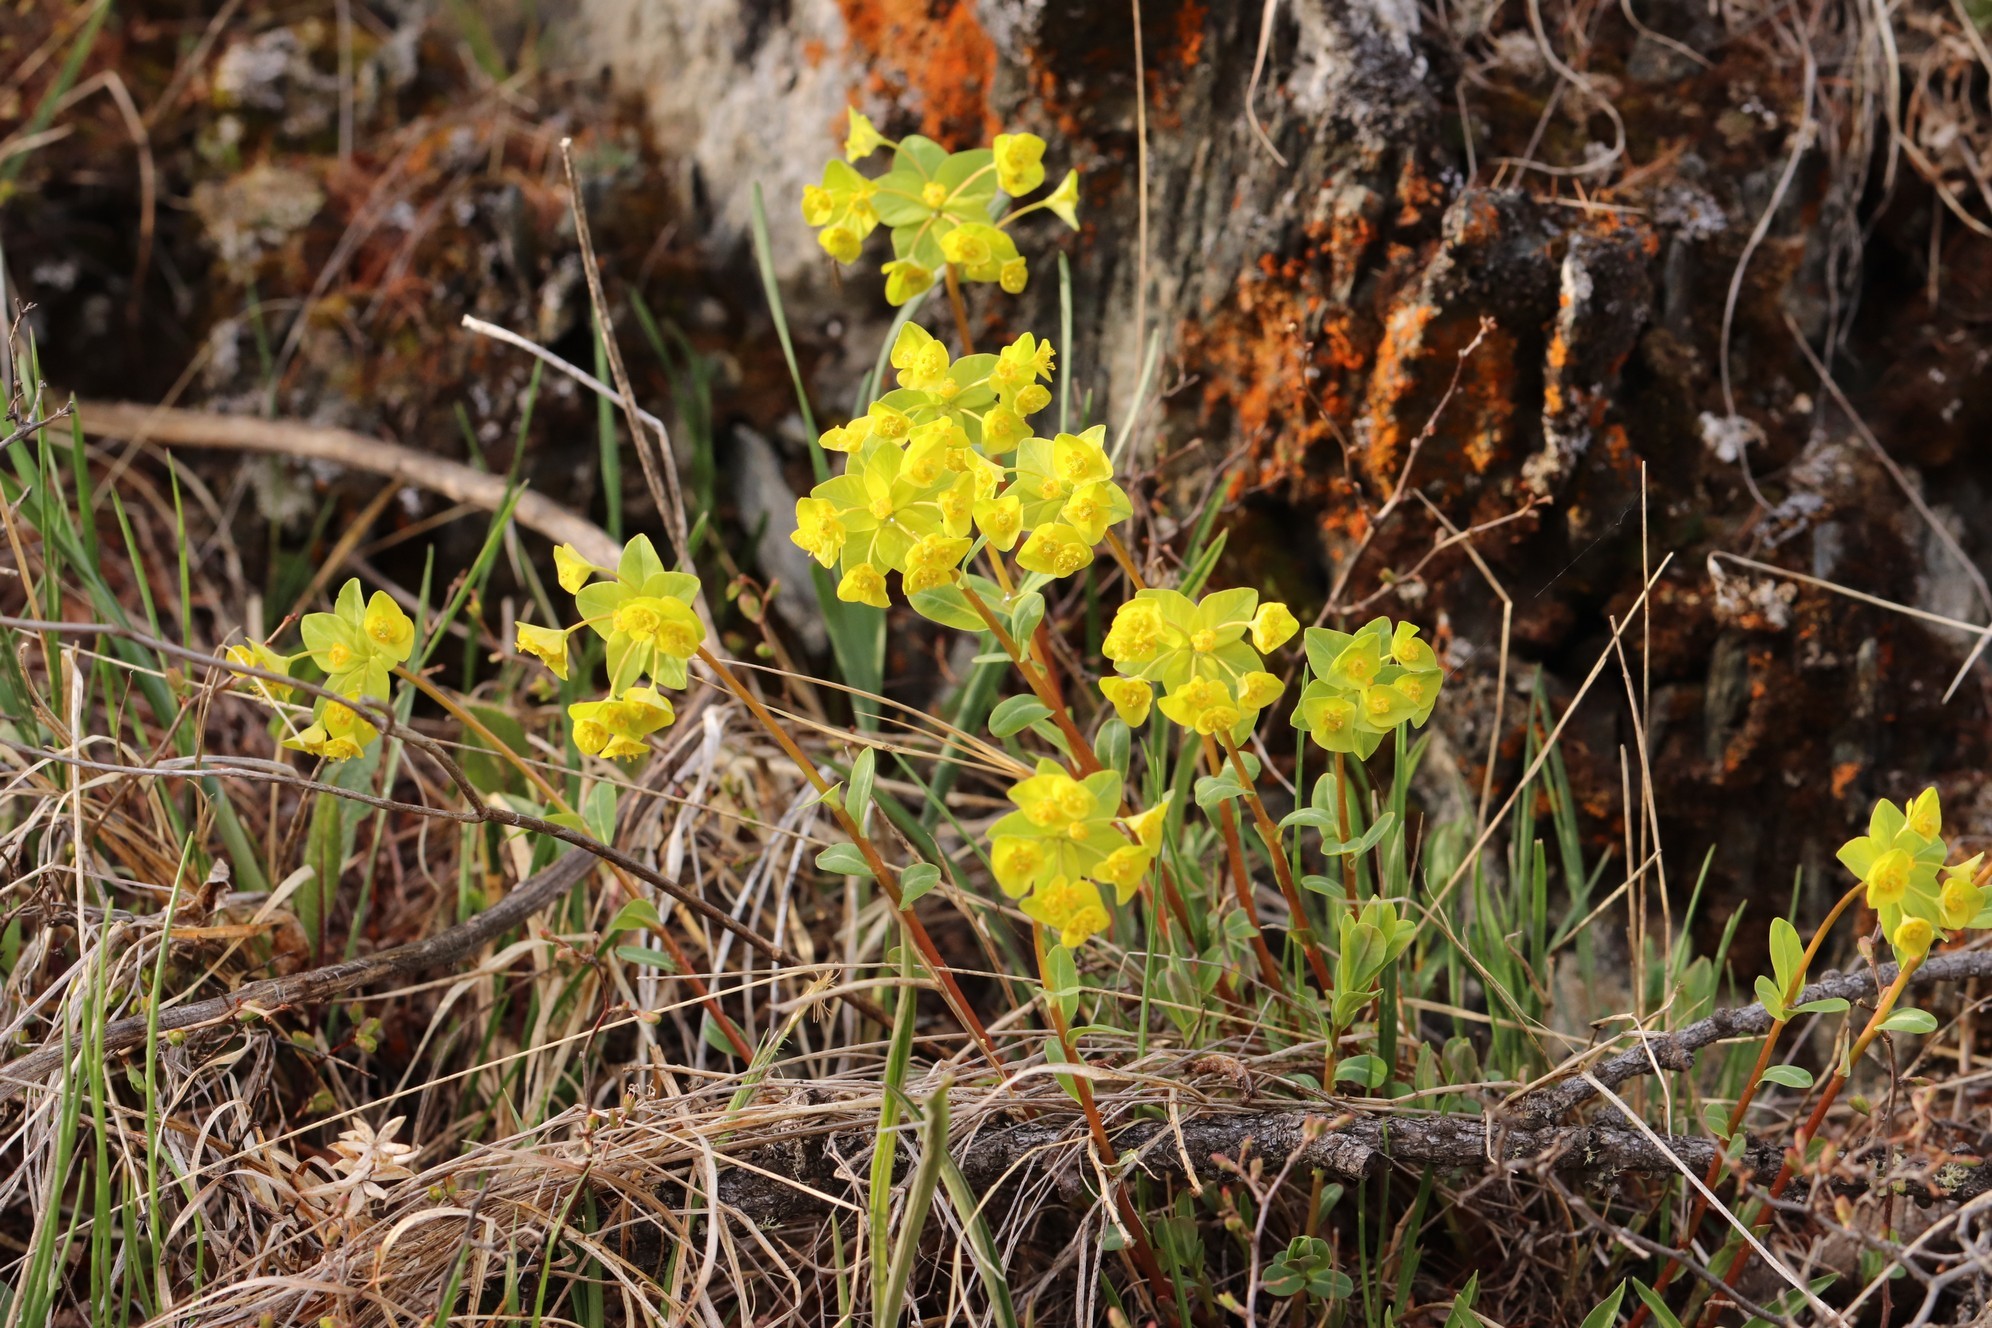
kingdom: Plantae
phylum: Tracheophyta
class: Magnoliopsida
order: Malpighiales
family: Euphorbiaceae
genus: Euphorbia
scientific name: Euphorbia altaica
